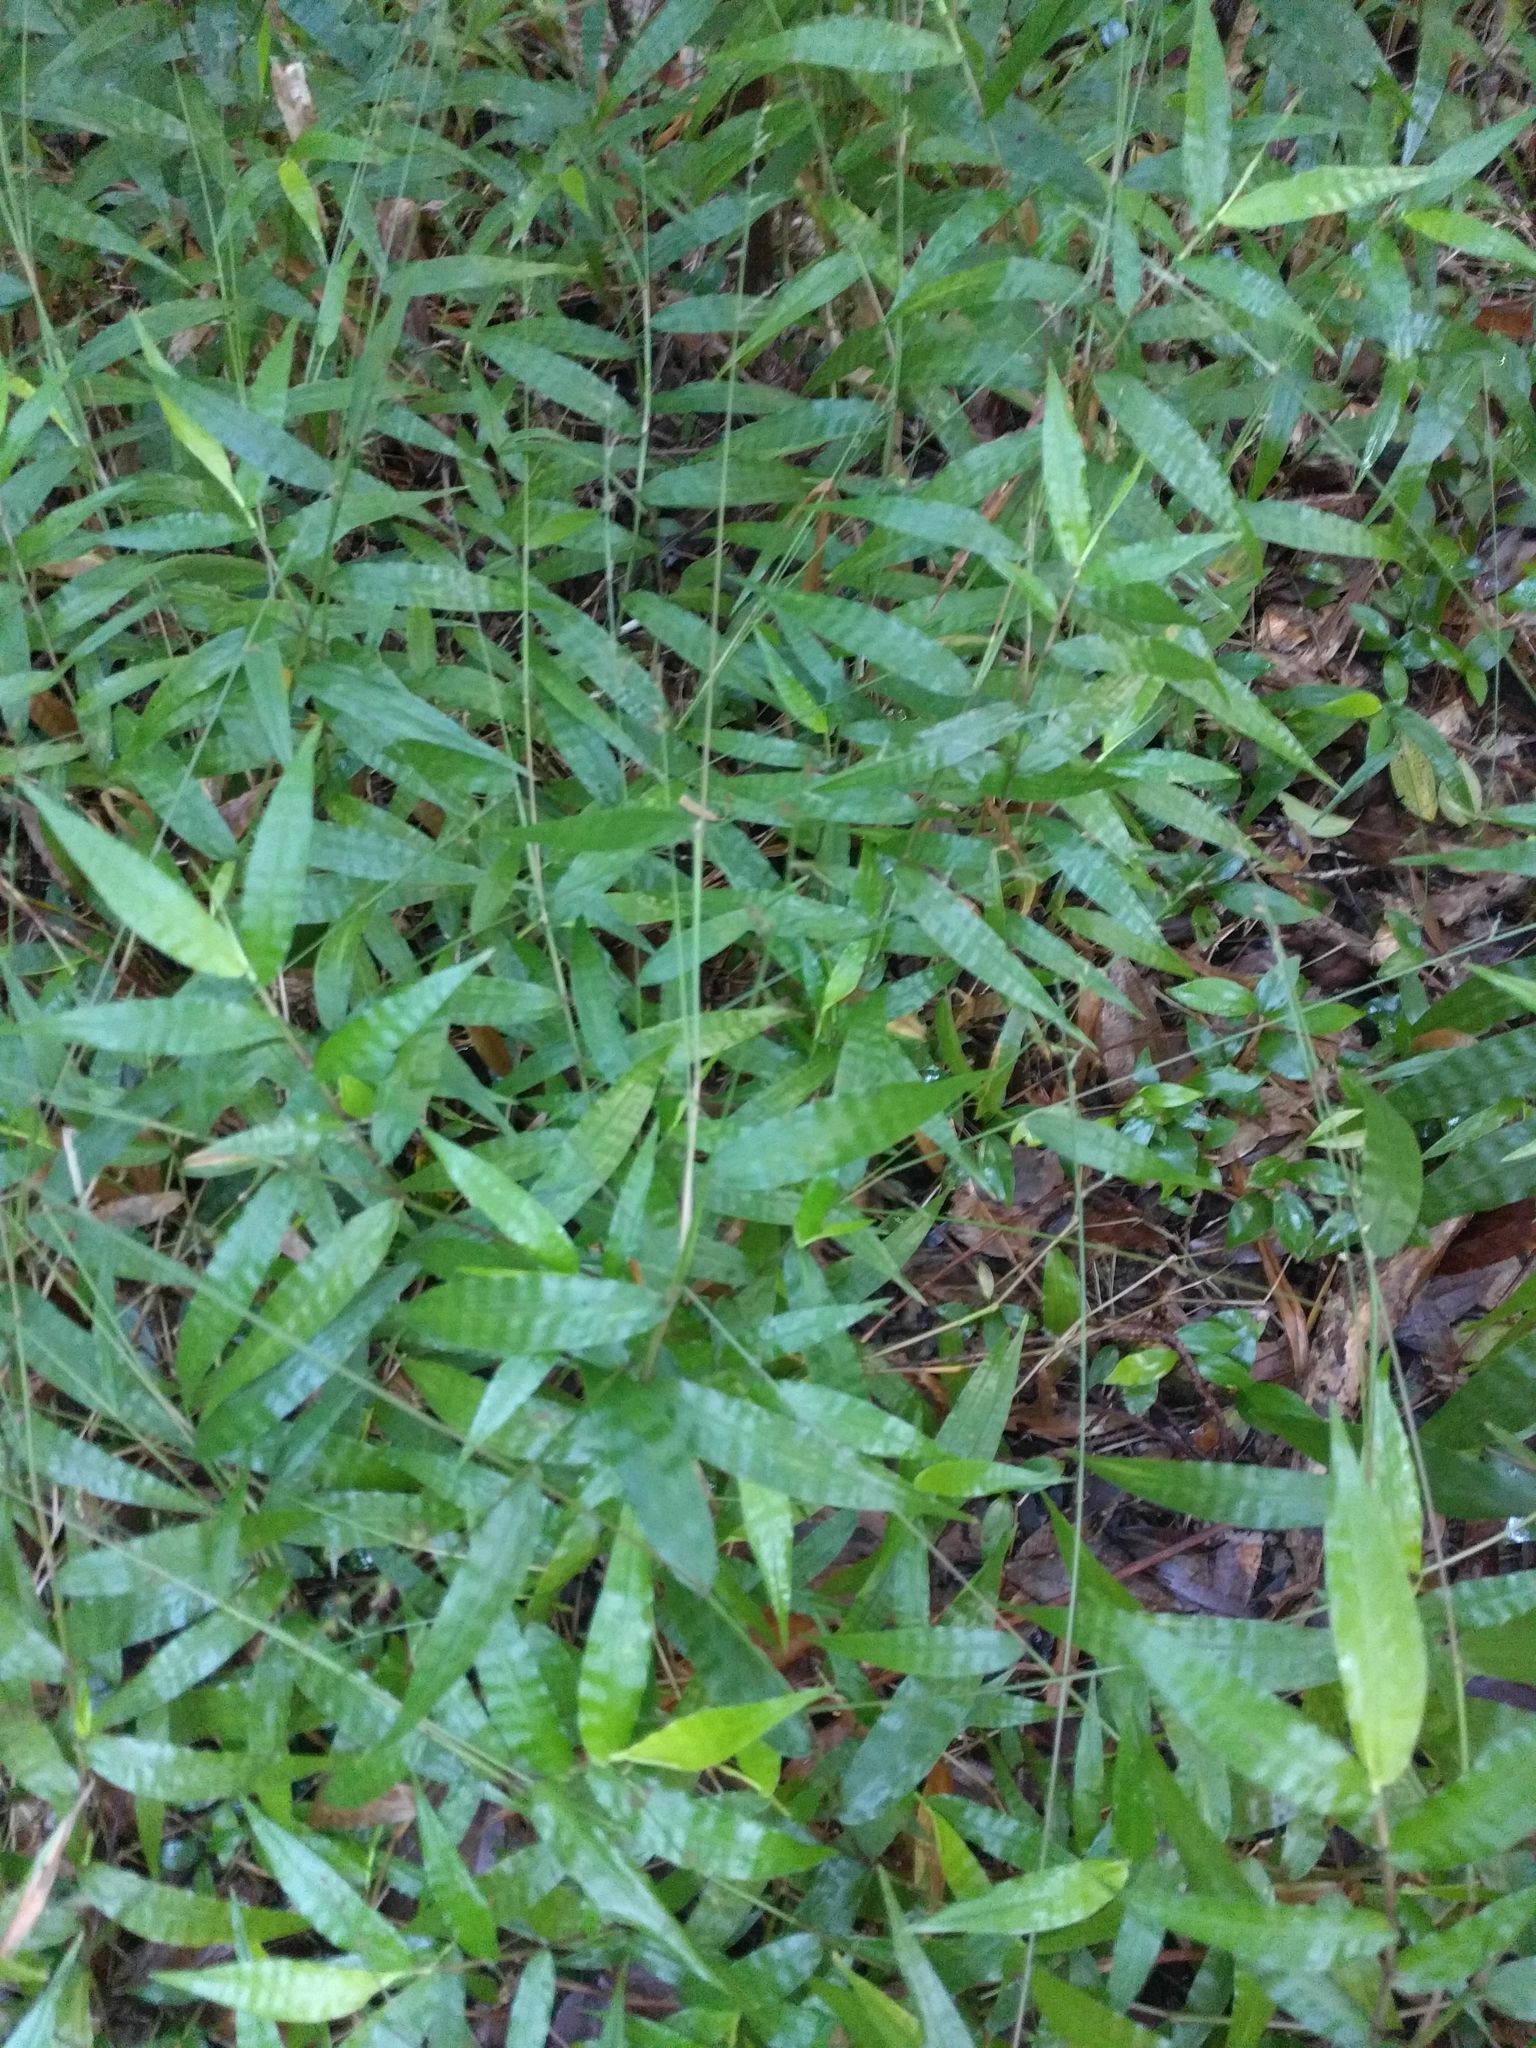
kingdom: Plantae
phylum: Tracheophyta
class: Liliopsida
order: Poales
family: Poaceae
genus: Oplismenus
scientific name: Oplismenus hirtellus
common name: Basketgrass
